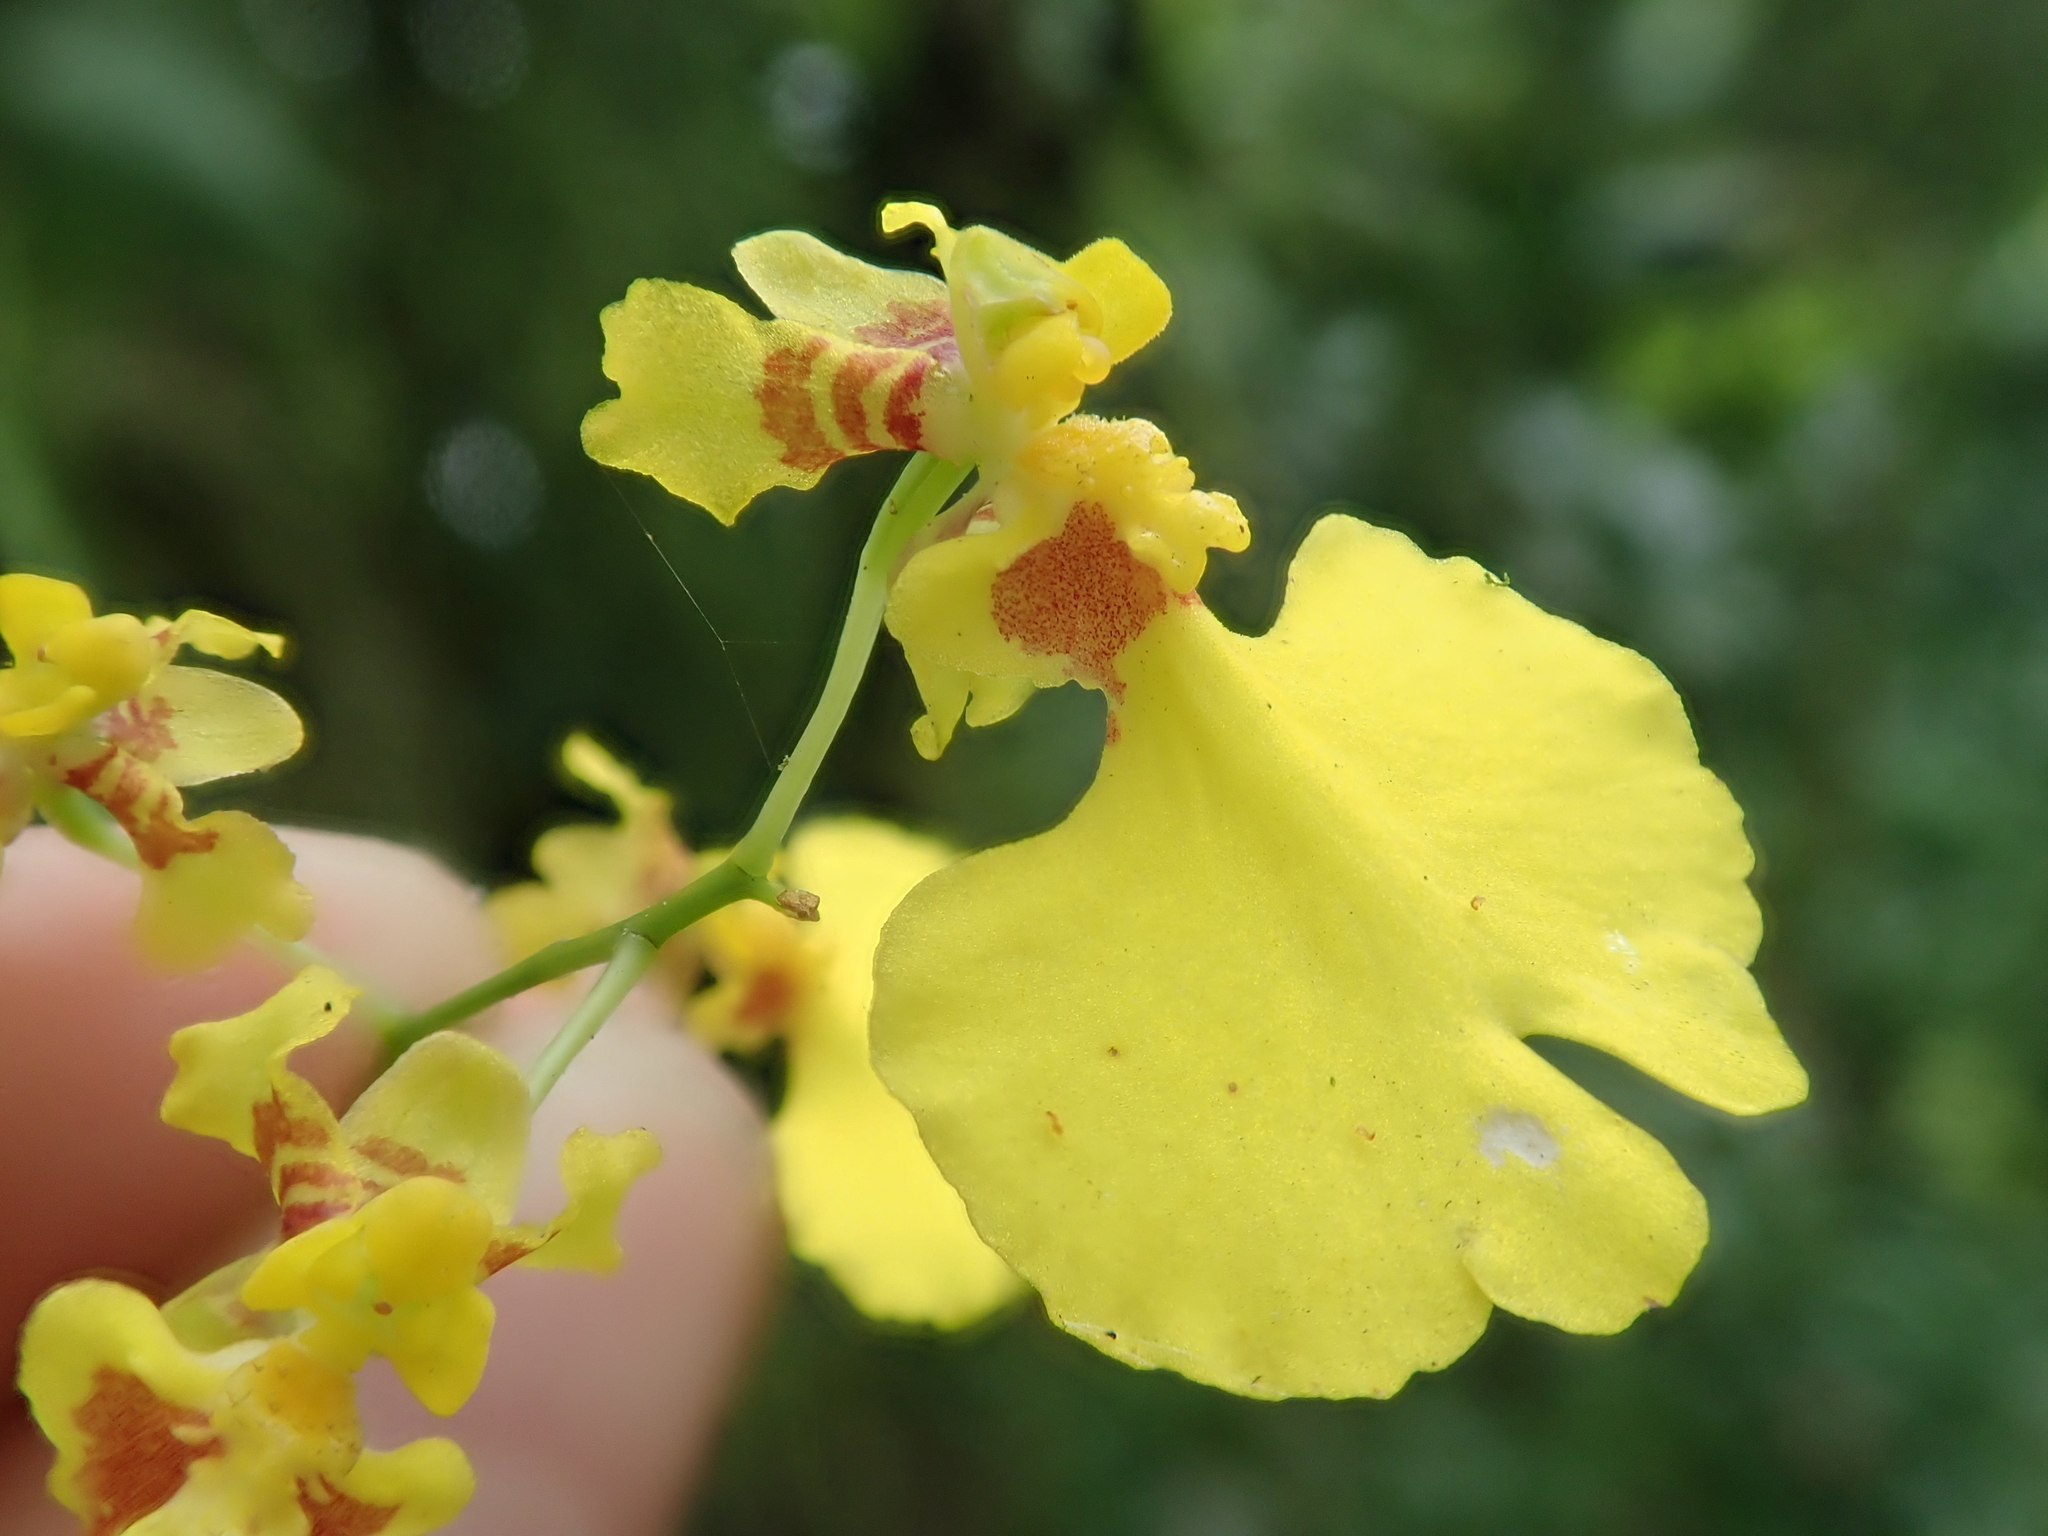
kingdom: Plantae
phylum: Tracheophyta
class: Liliopsida
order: Asparagales
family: Orchidaceae
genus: Gomesa
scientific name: Gomesa flexuosa
